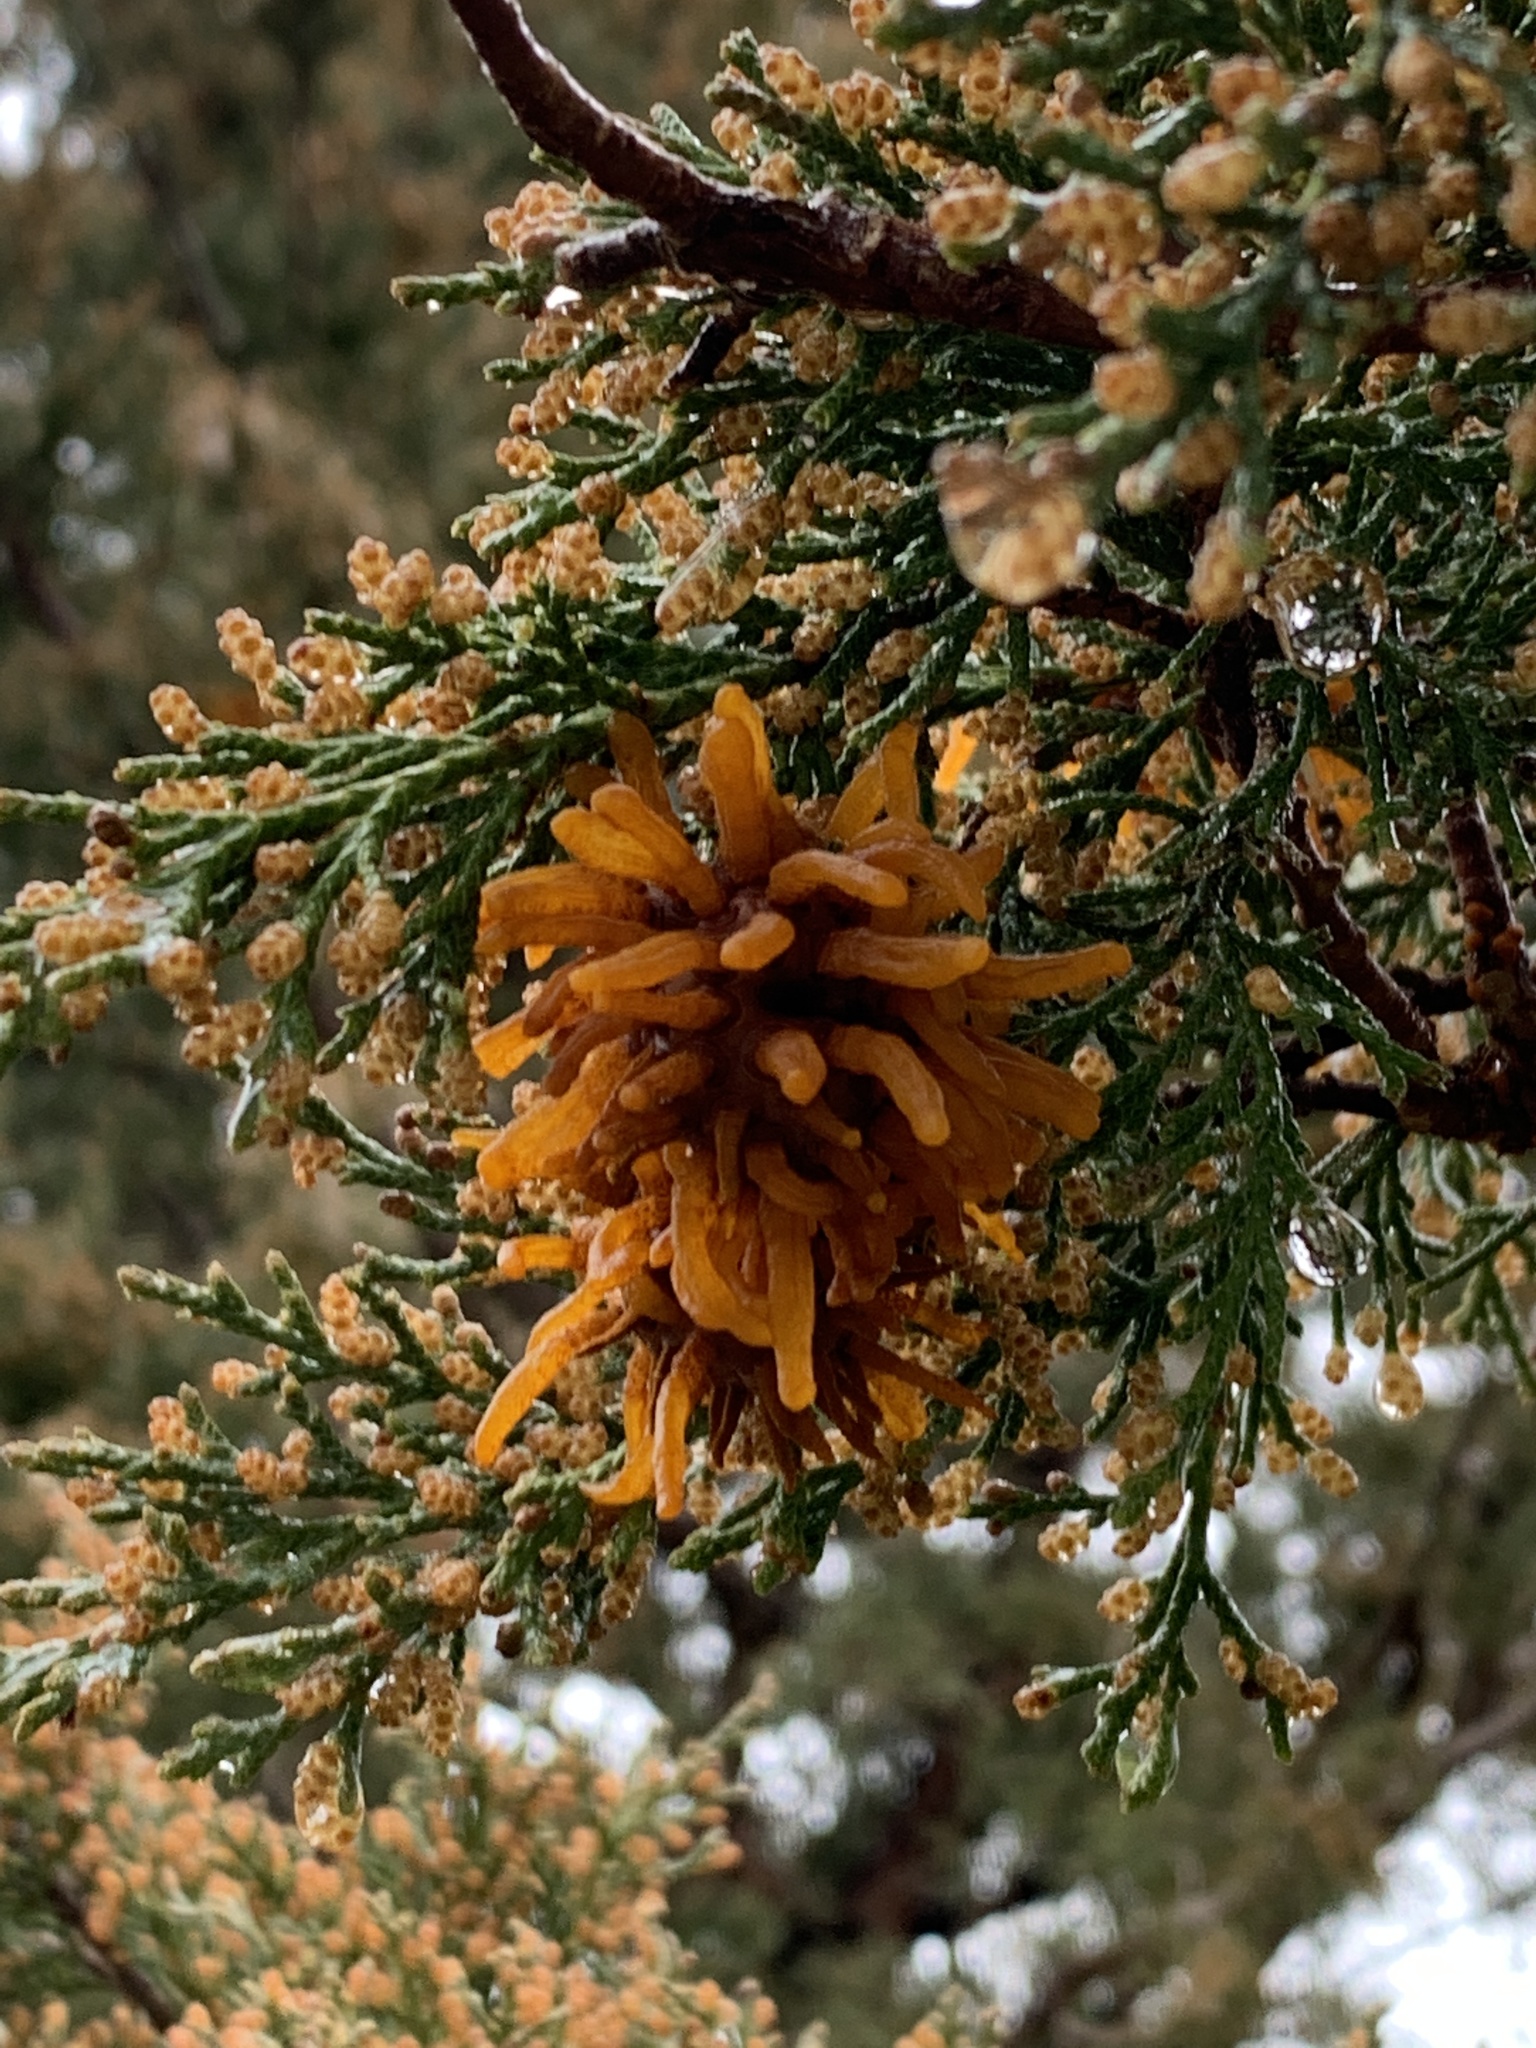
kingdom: Fungi
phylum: Basidiomycota
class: Pucciniomycetes
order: Pucciniales
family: Gymnosporangiaceae
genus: Gymnosporangium
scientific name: Gymnosporangium juniperi-virginianae
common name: Juniper-apple rust
